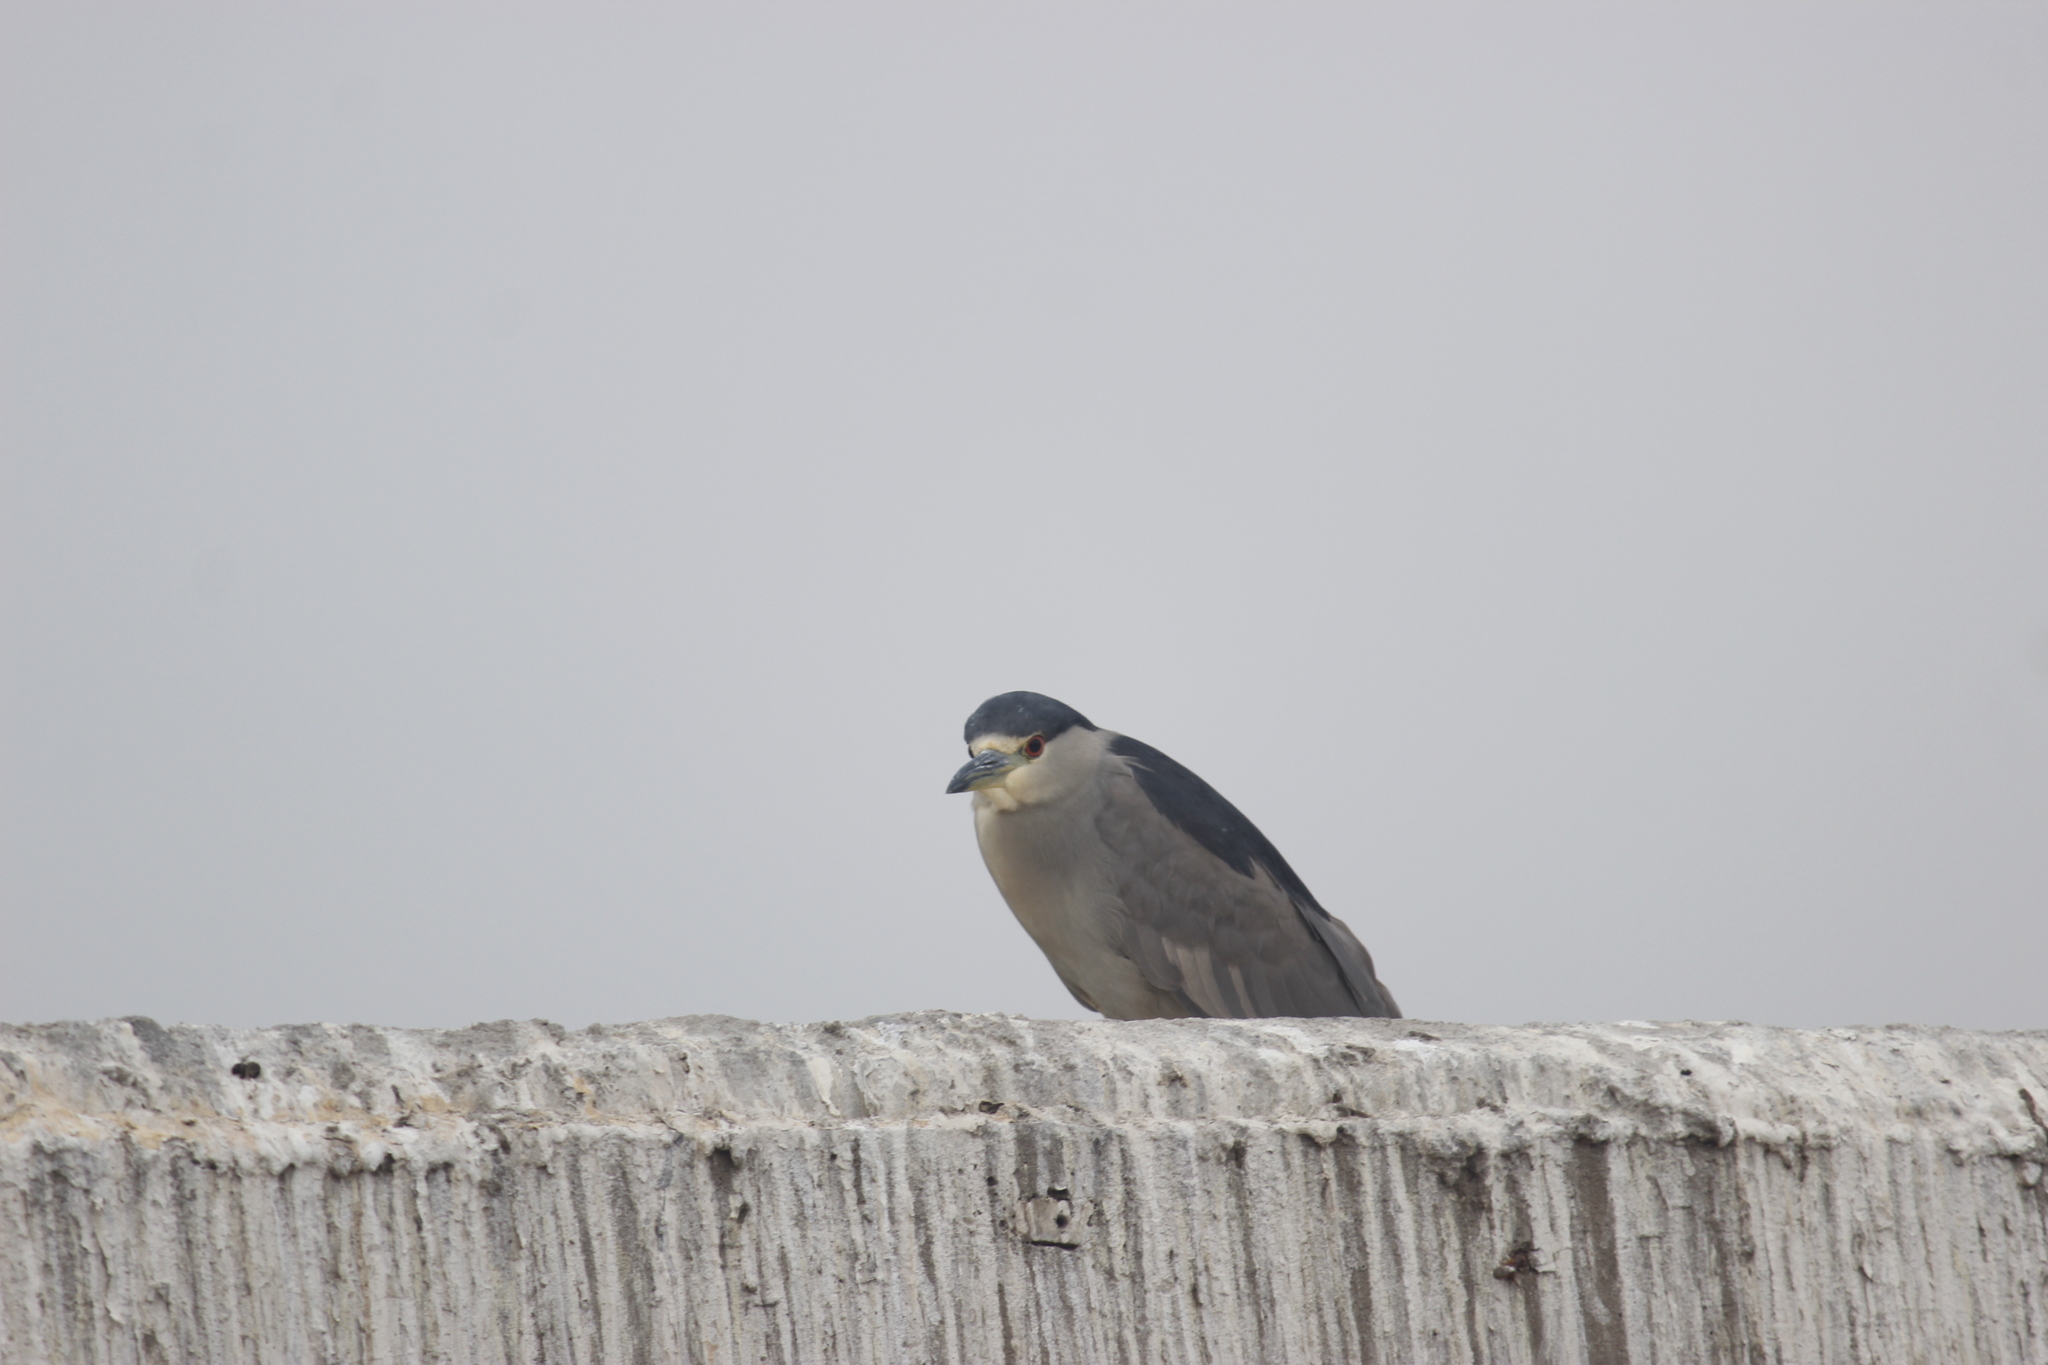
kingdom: Animalia
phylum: Chordata
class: Aves
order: Pelecaniformes
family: Ardeidae
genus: Nycticorax
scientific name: Nycticorax nycticorax
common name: Black-crowned night heron
